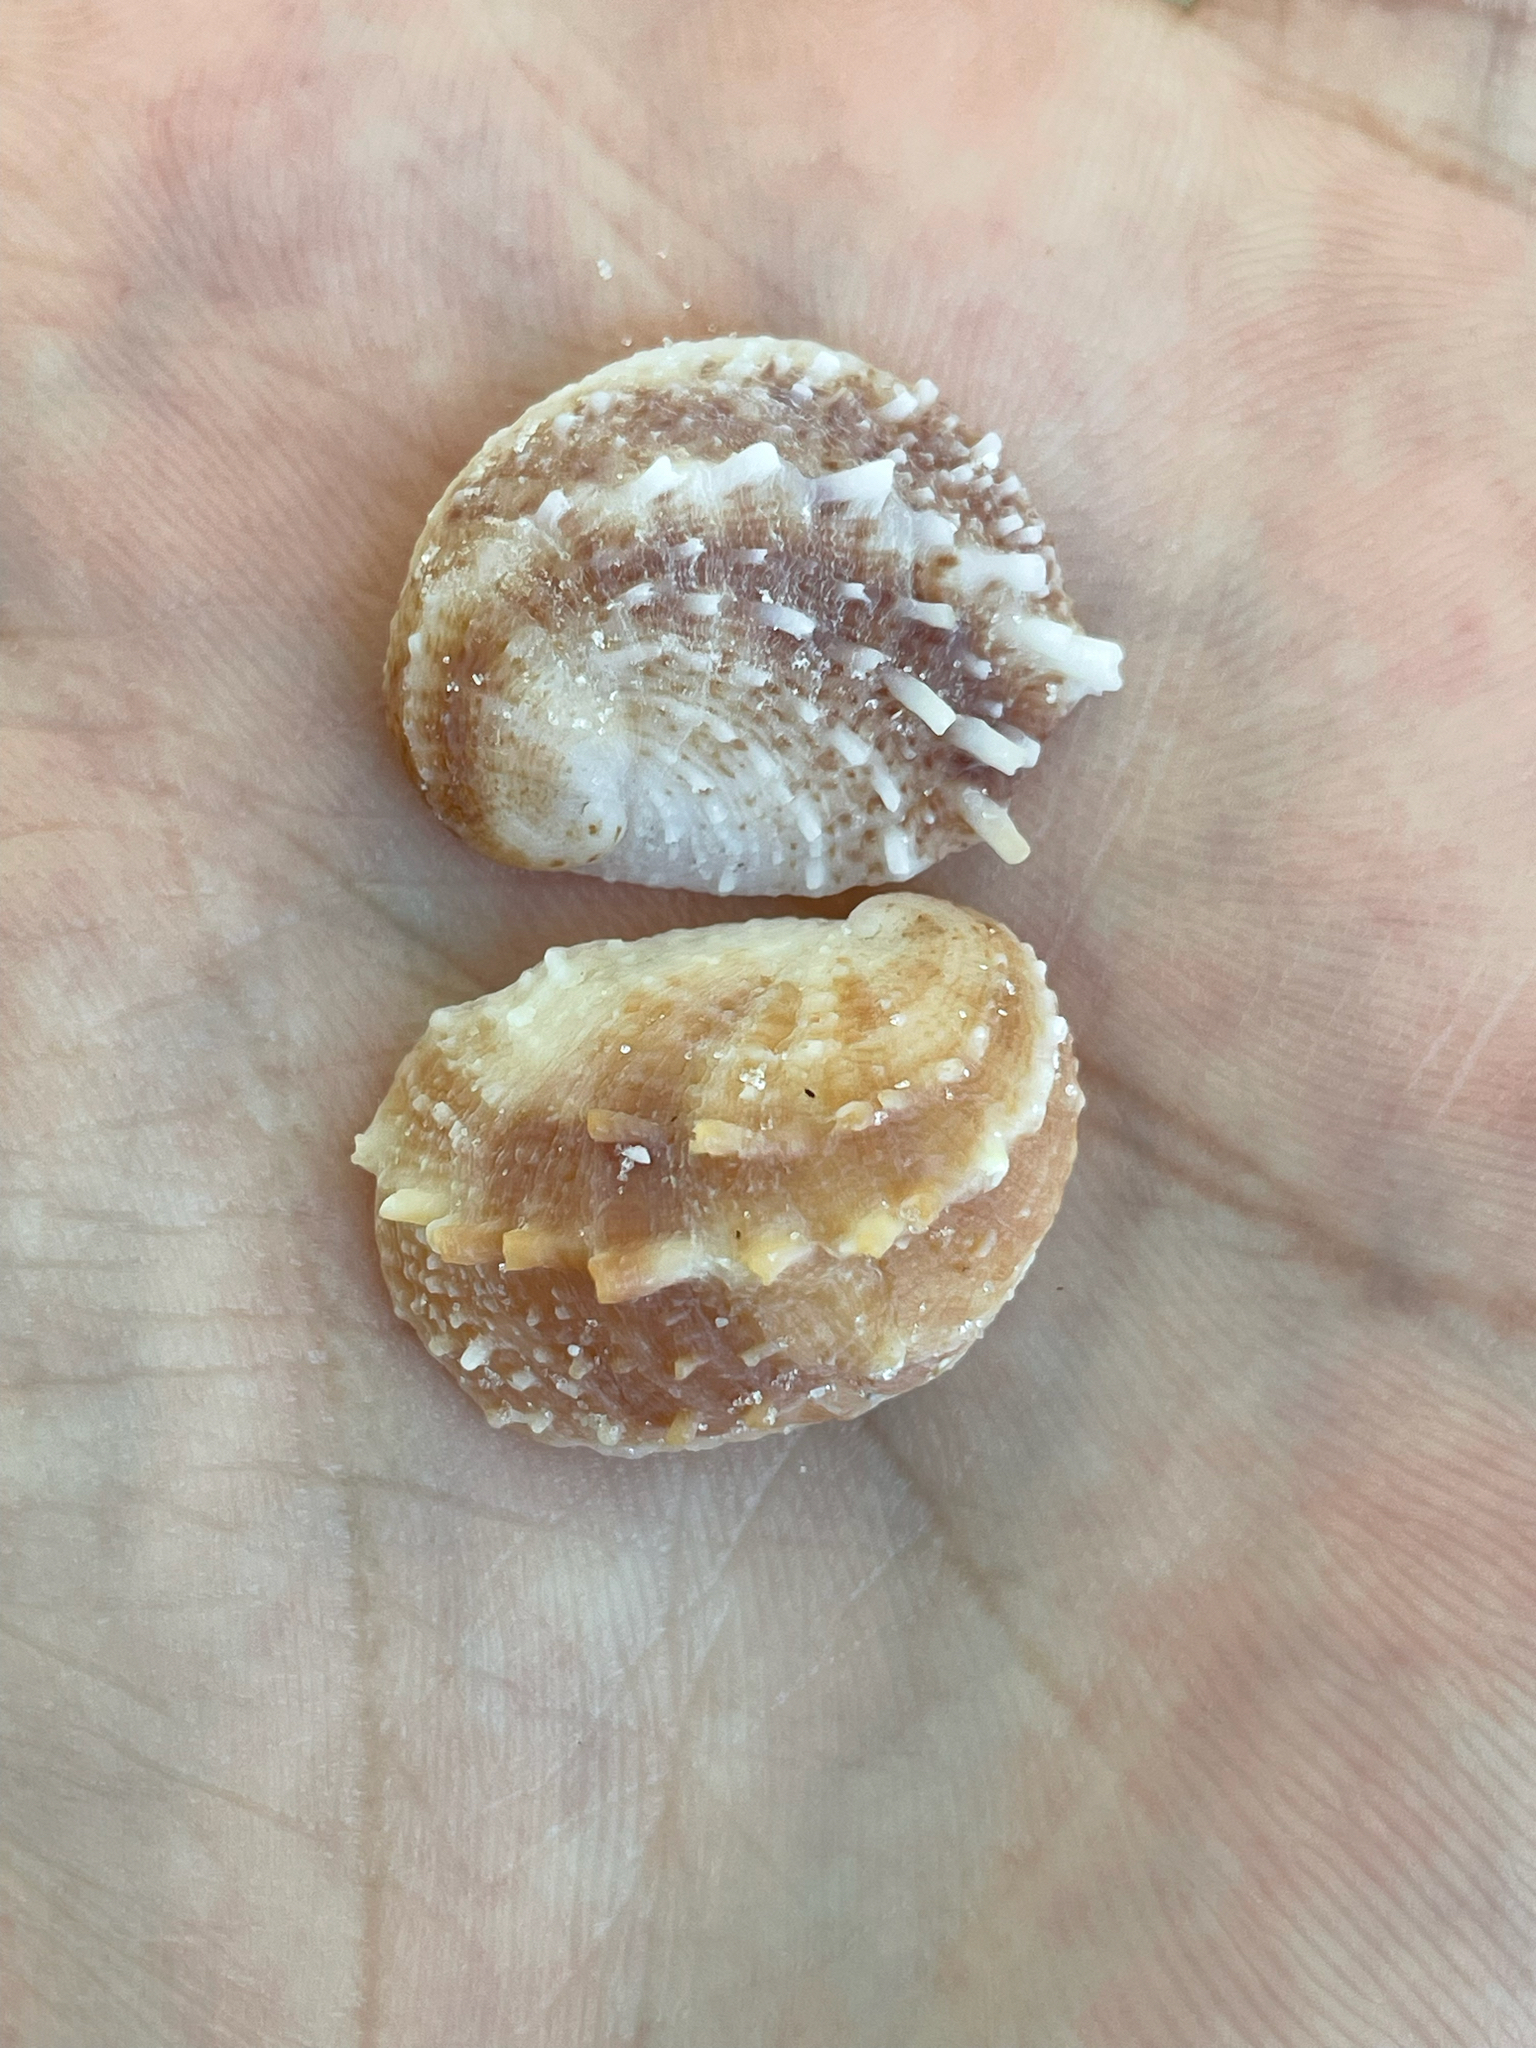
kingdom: Animalia
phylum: Mollusca
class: Gastropoda
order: Littorinimorpha
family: Calyptraeidae
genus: Bostrycapulus
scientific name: Bostrycapulus aculeatus
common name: Spiny slippersnail
